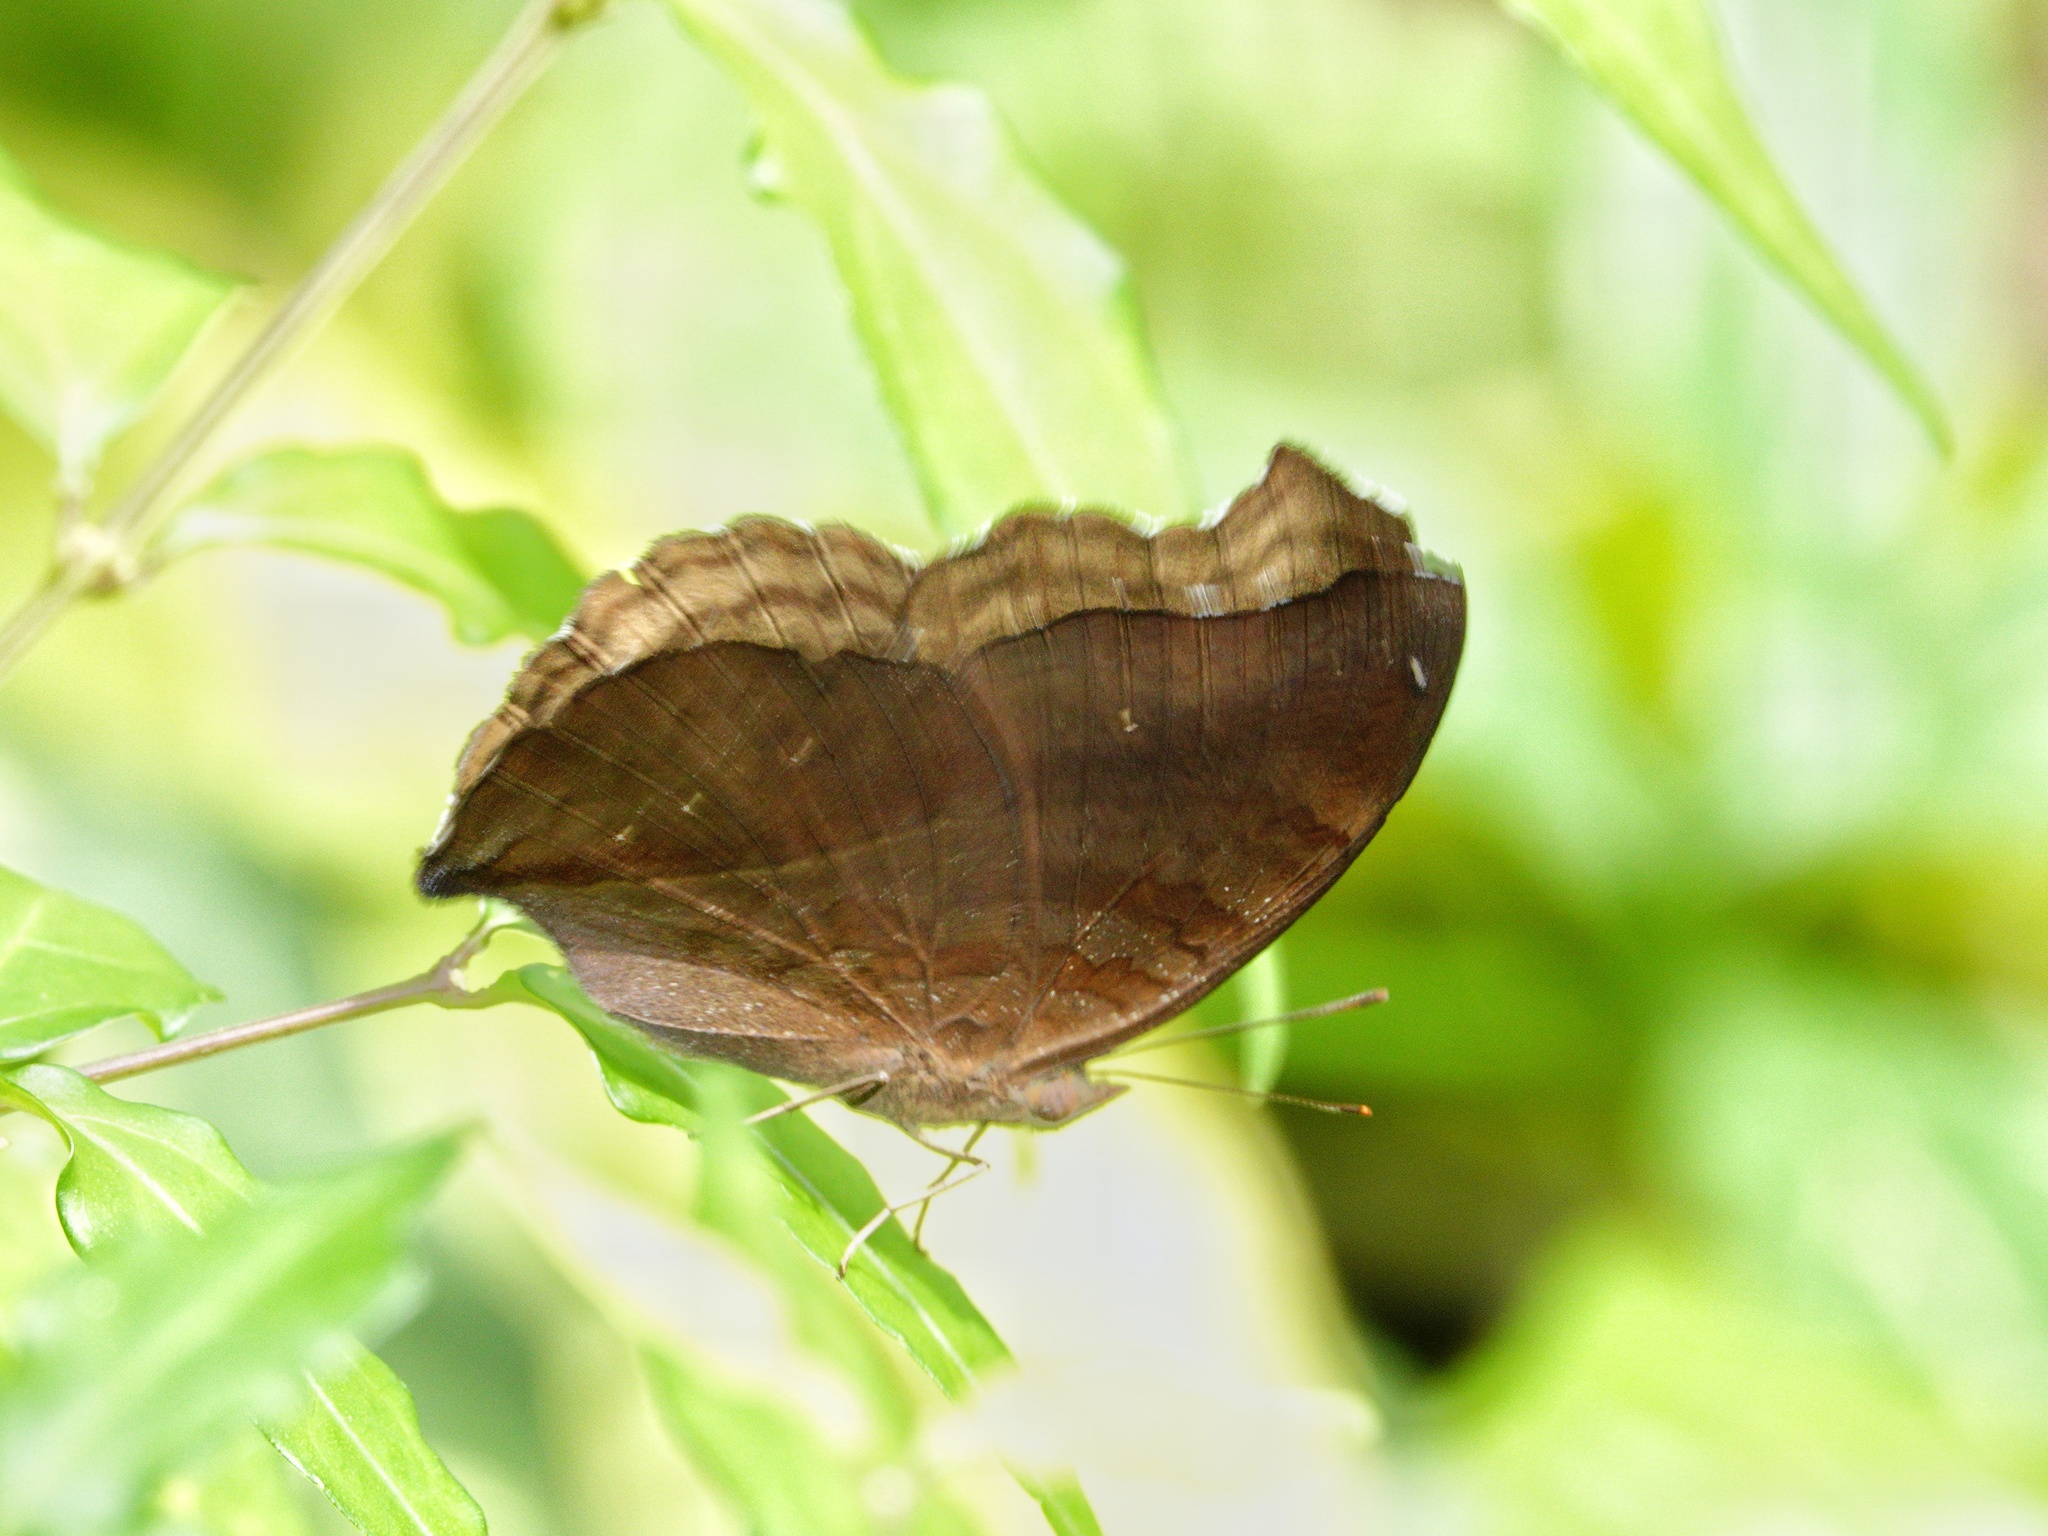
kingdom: Animalia
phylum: Arthropoda
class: Insecta
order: Lepidoptera
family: Nymphalidae
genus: Junonia
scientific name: Junonia iphita
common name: Chocolate pansy
